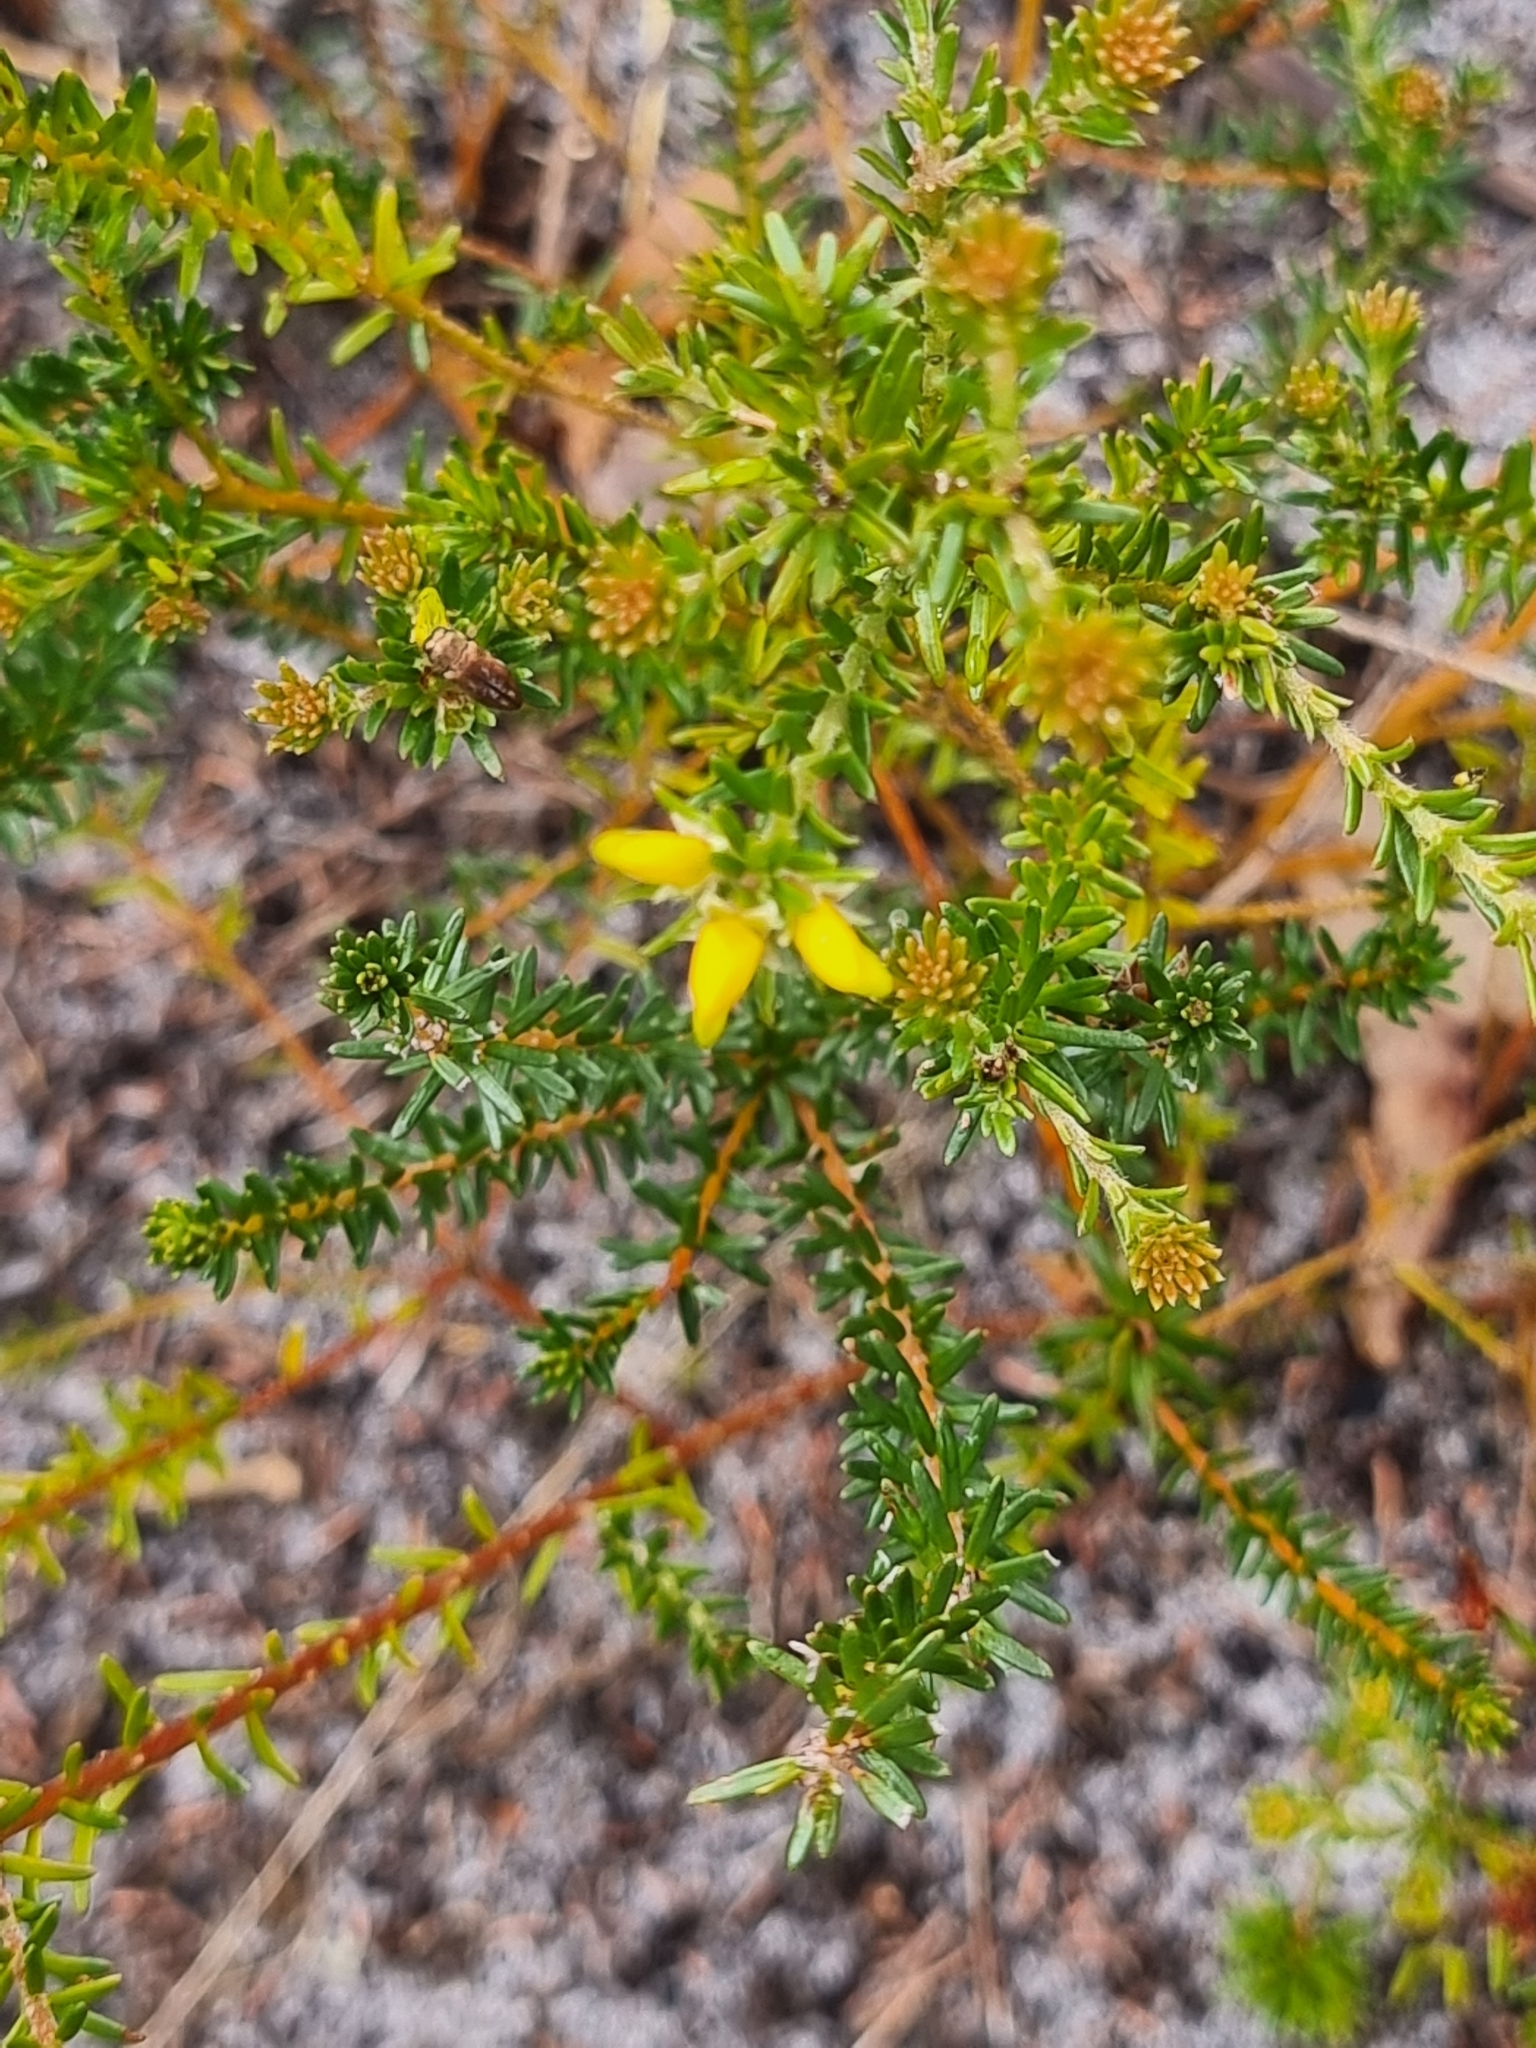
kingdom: Plantae
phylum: Tracheophyta
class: Magnoliopsida
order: Fabales
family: Fabaceae
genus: Phyllota
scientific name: Phyllota phylicoides
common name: Heath phyllota
